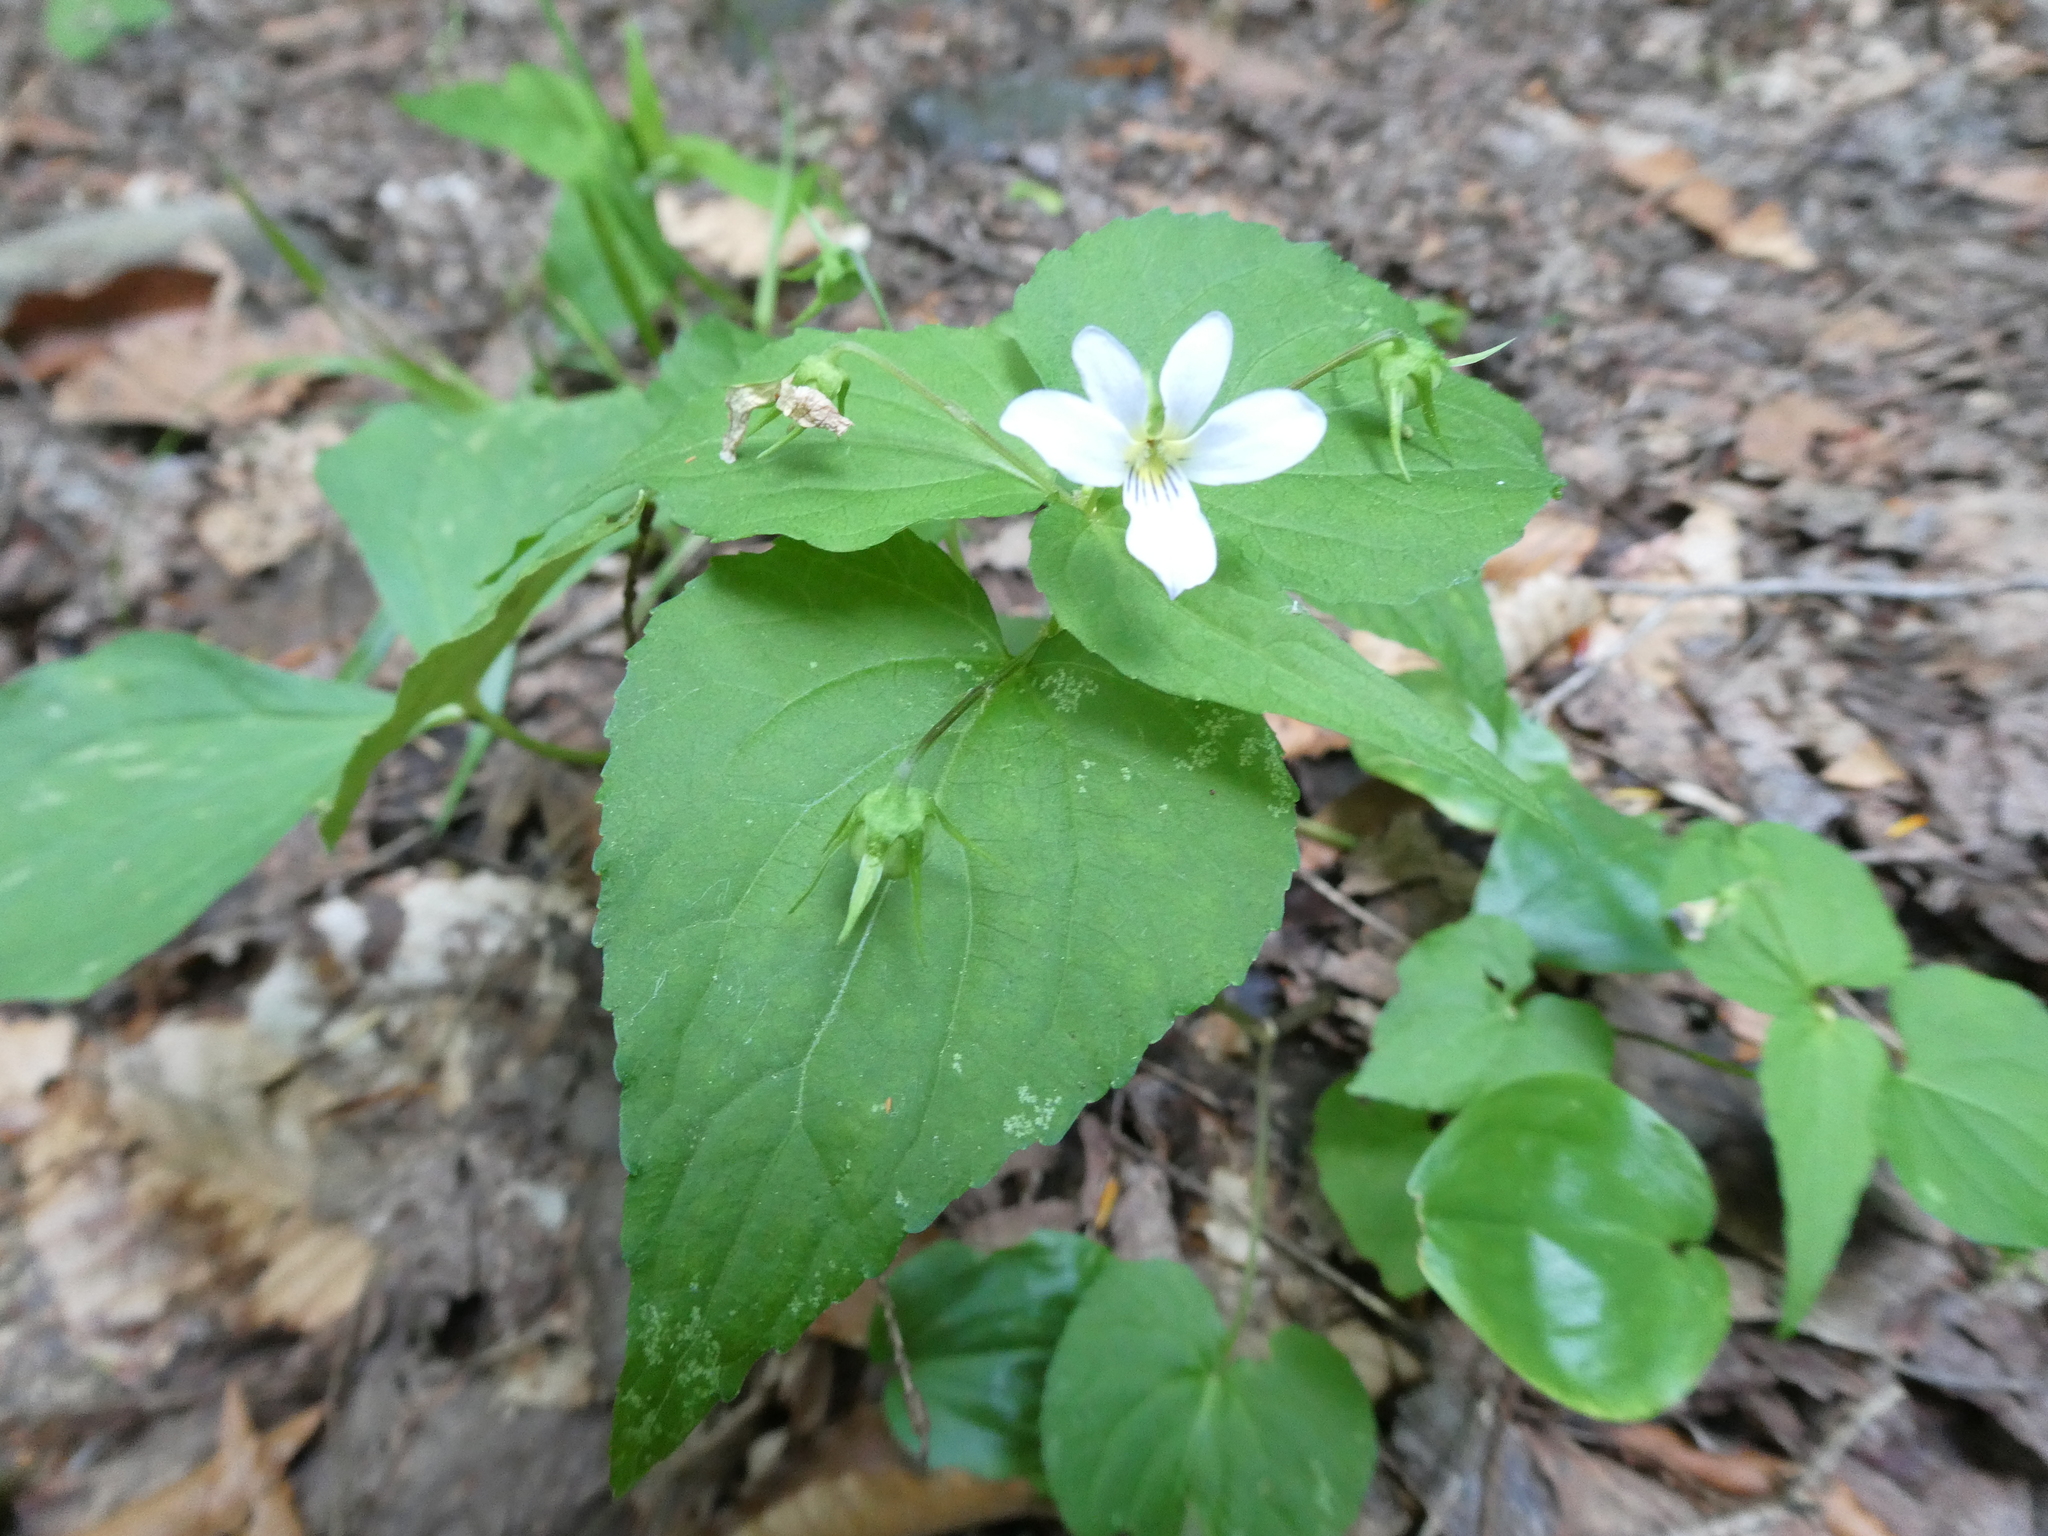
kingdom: Plantae
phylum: Tracheophyta
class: Magnoliopsida
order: Malpighiales
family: Violaceae
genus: Viola
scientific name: Viola canadensis
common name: Canada violet
